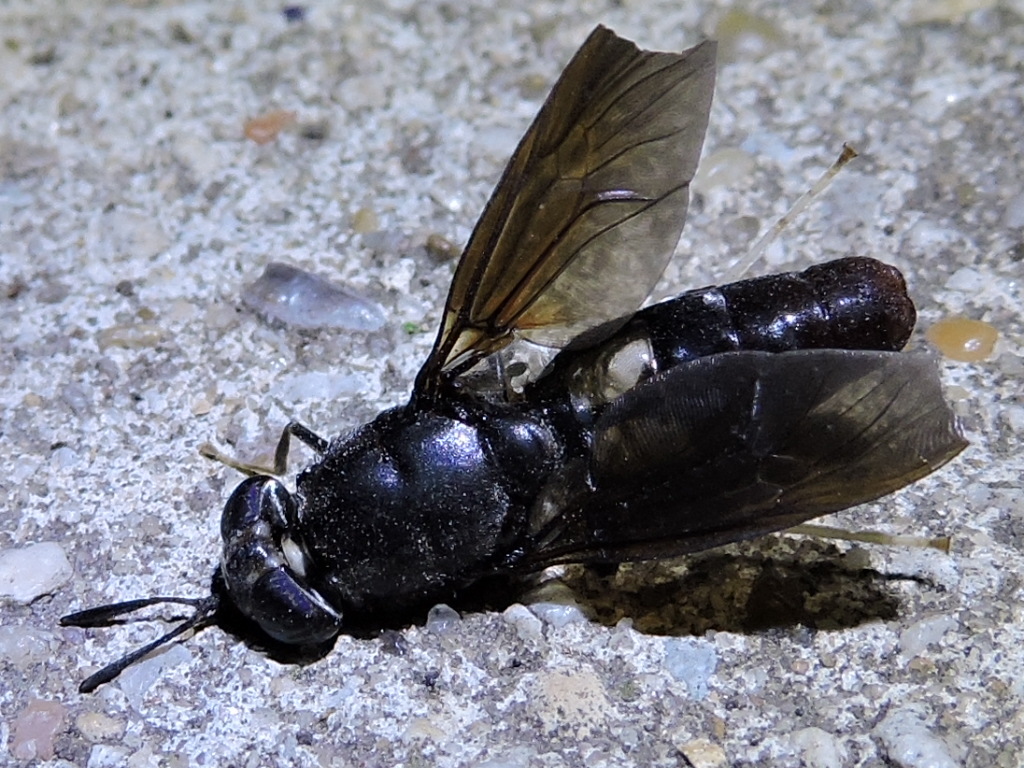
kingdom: Animalia
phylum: Arthropoda
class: Insecta
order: Diptera
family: Stratiomyidae
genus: Hermetia
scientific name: Hermetia illucens
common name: Black soldier fly
